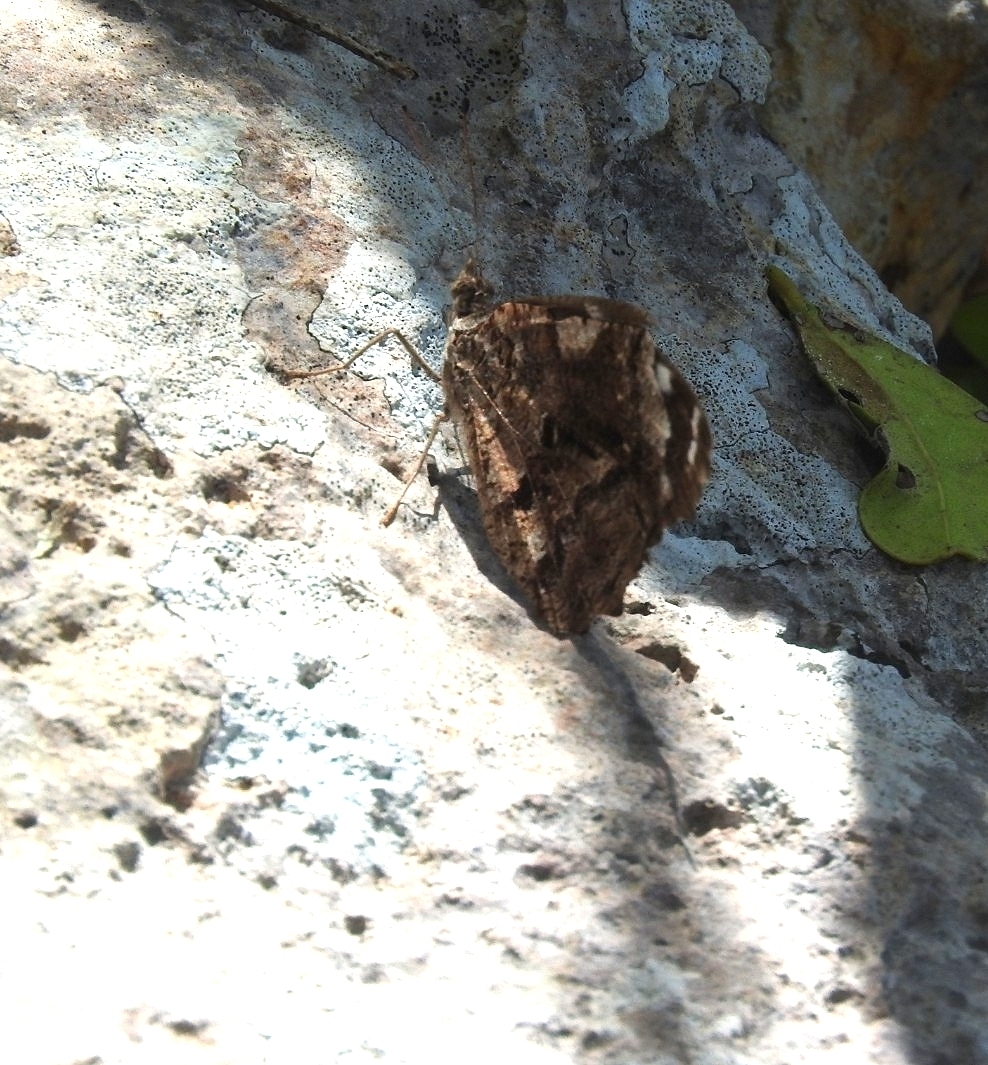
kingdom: Animalia
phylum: Arthropoda
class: Insecta
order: Lepidoptera
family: Nymphalidae
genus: Myscelia
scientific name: Myscelia ethusa
